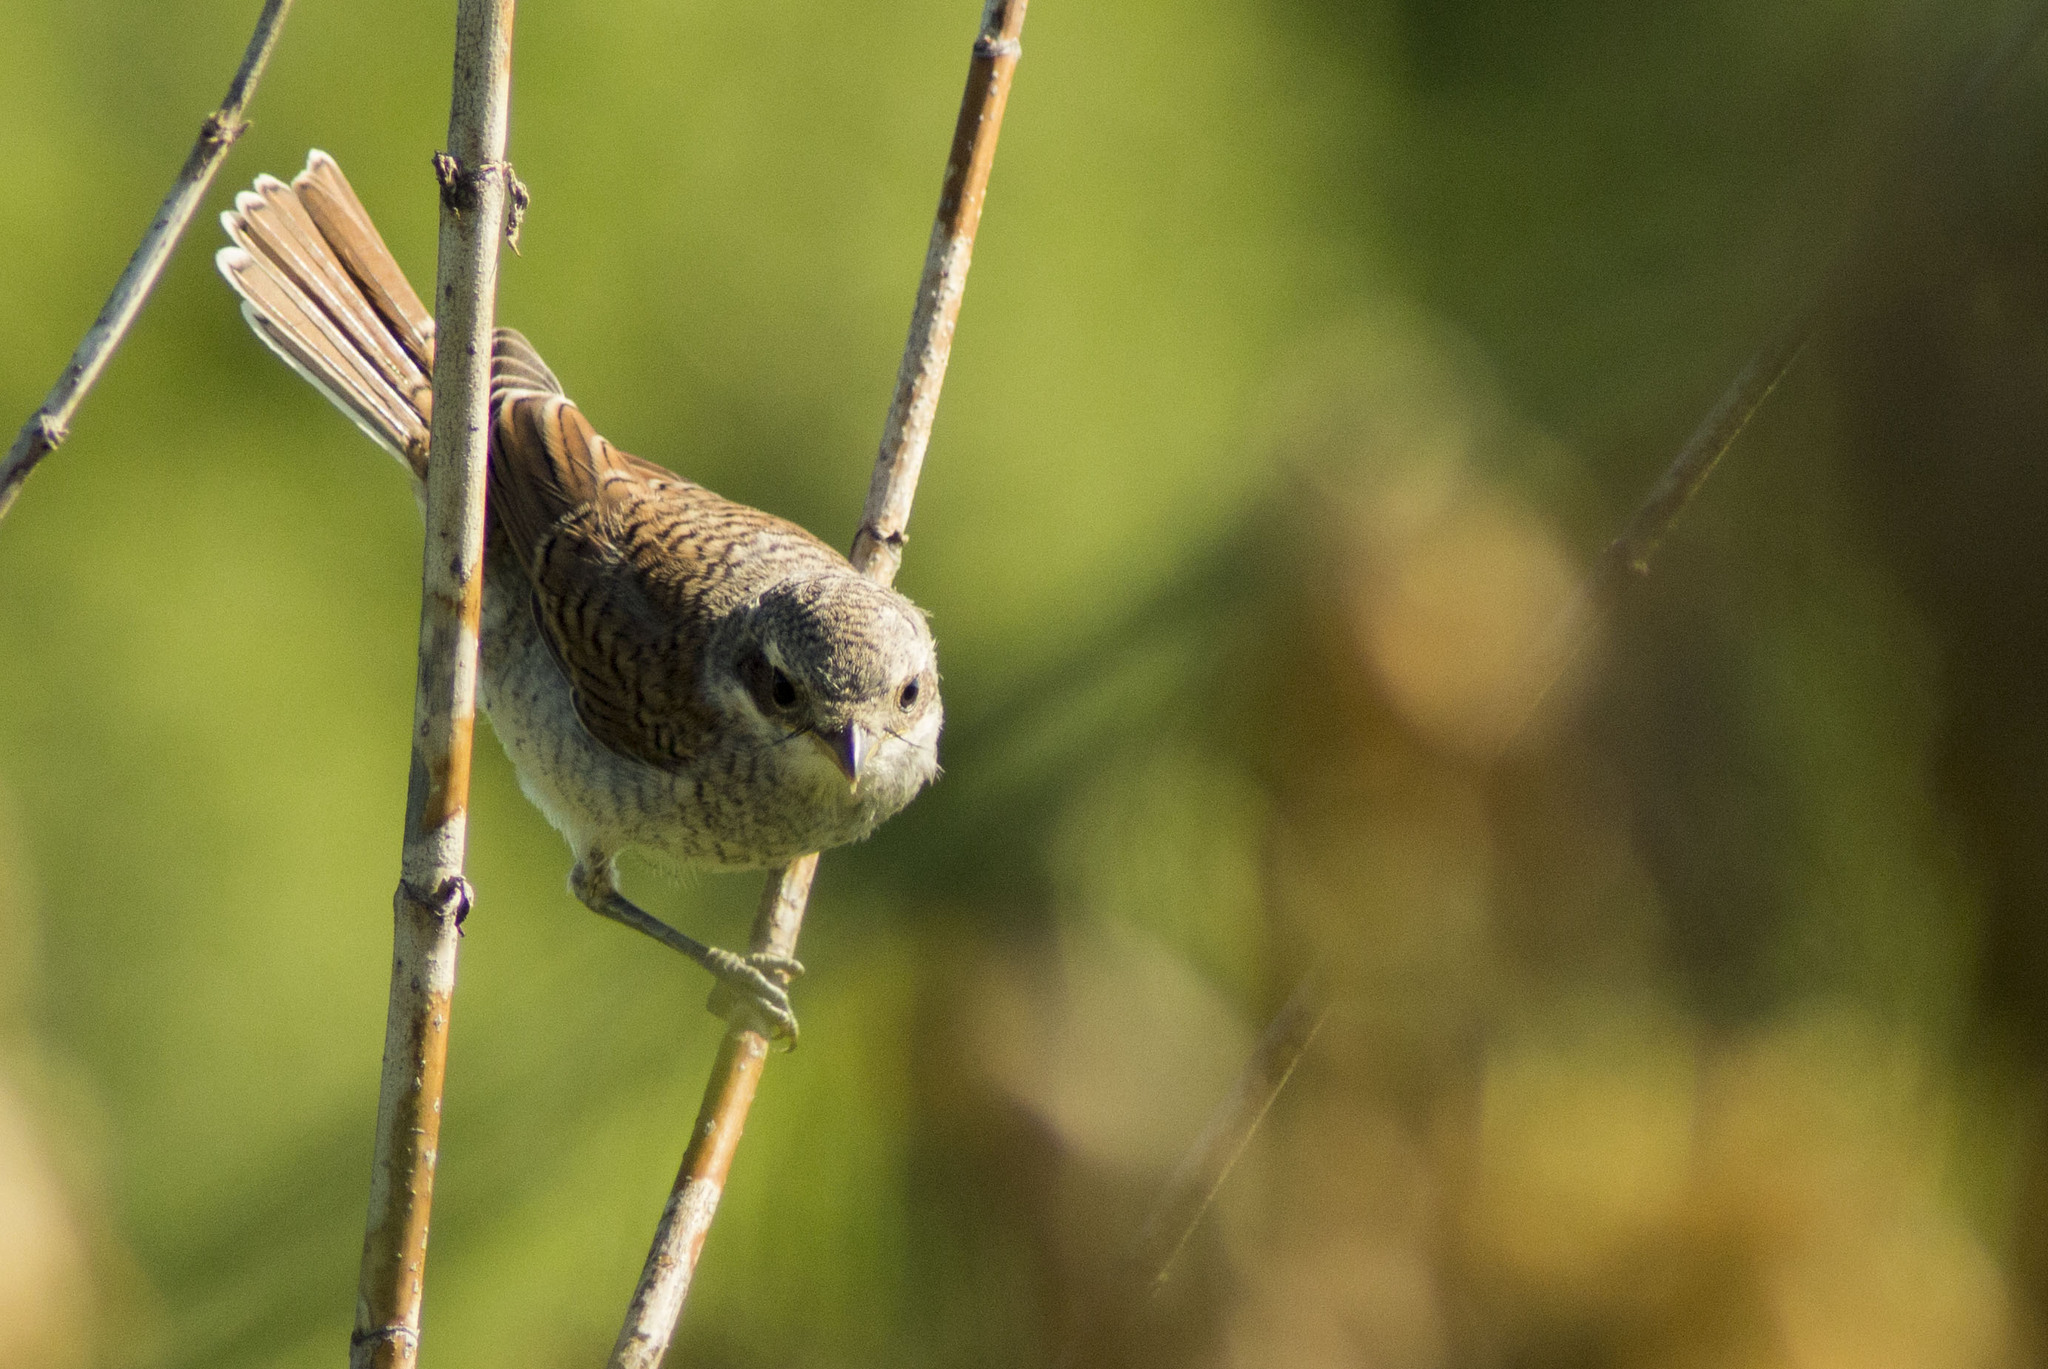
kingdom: Animalia
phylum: Chordata
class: Aves
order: Passeriformes
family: Laniidae
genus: Lanius
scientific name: Lanius collurio
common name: Red-backed shrike
